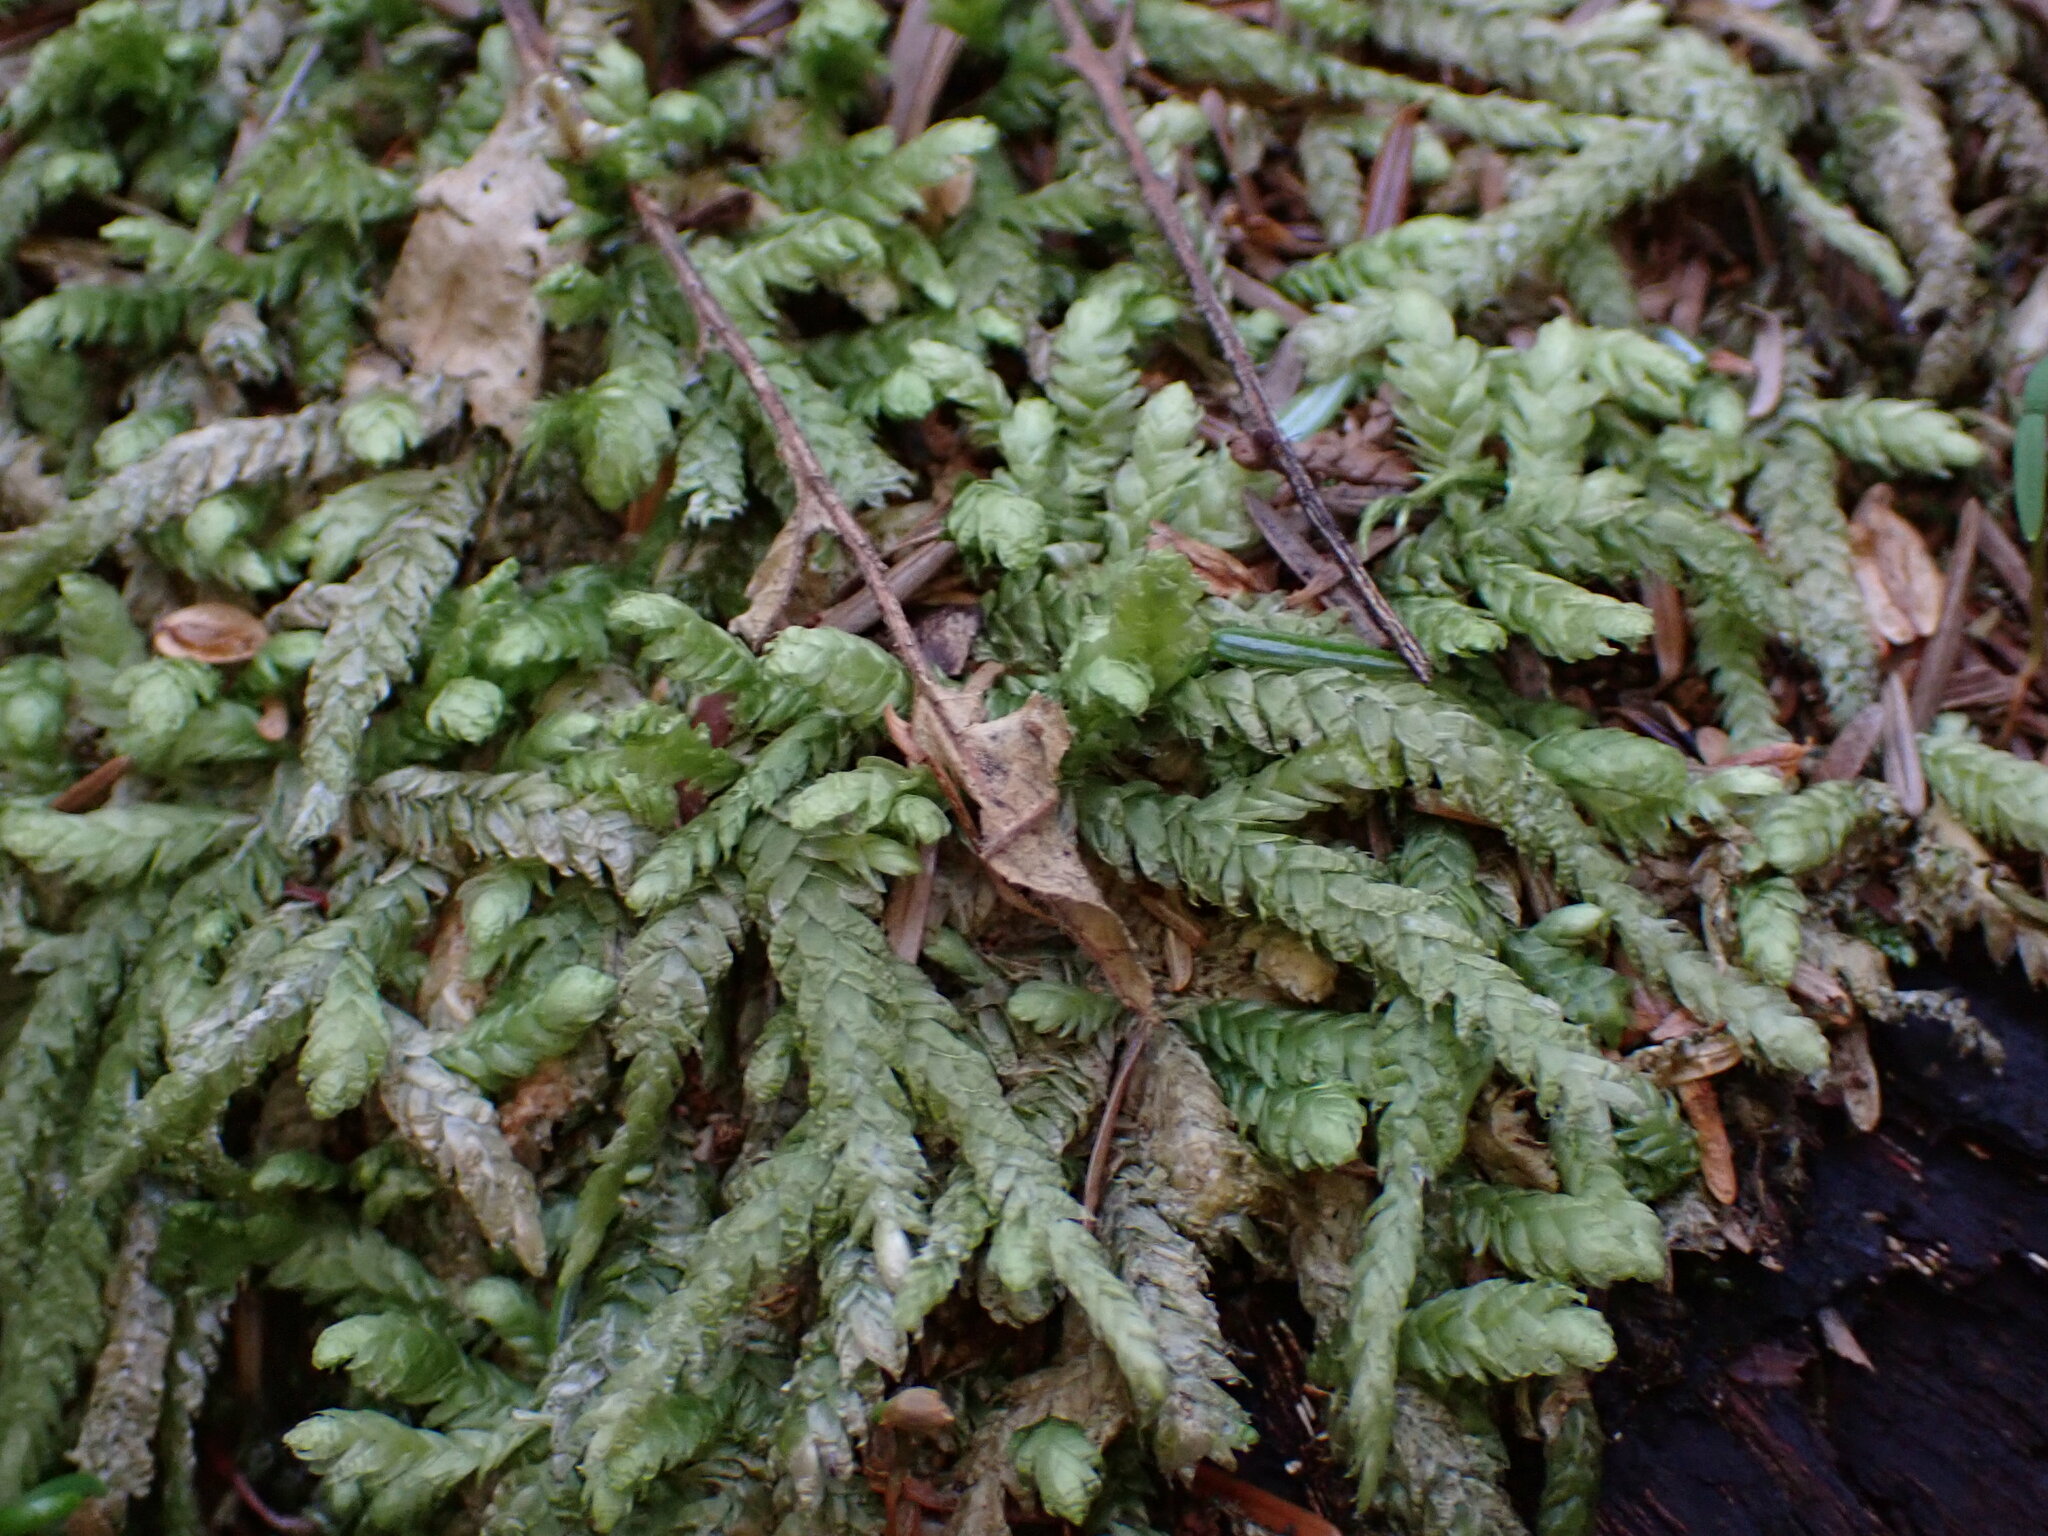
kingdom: Plantae
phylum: Bryophyta
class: Bryopsida
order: Hypnales
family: Plagiotheciaceae
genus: Plagiothecium
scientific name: Plagiothecium undulatum
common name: Waved silk-moss
